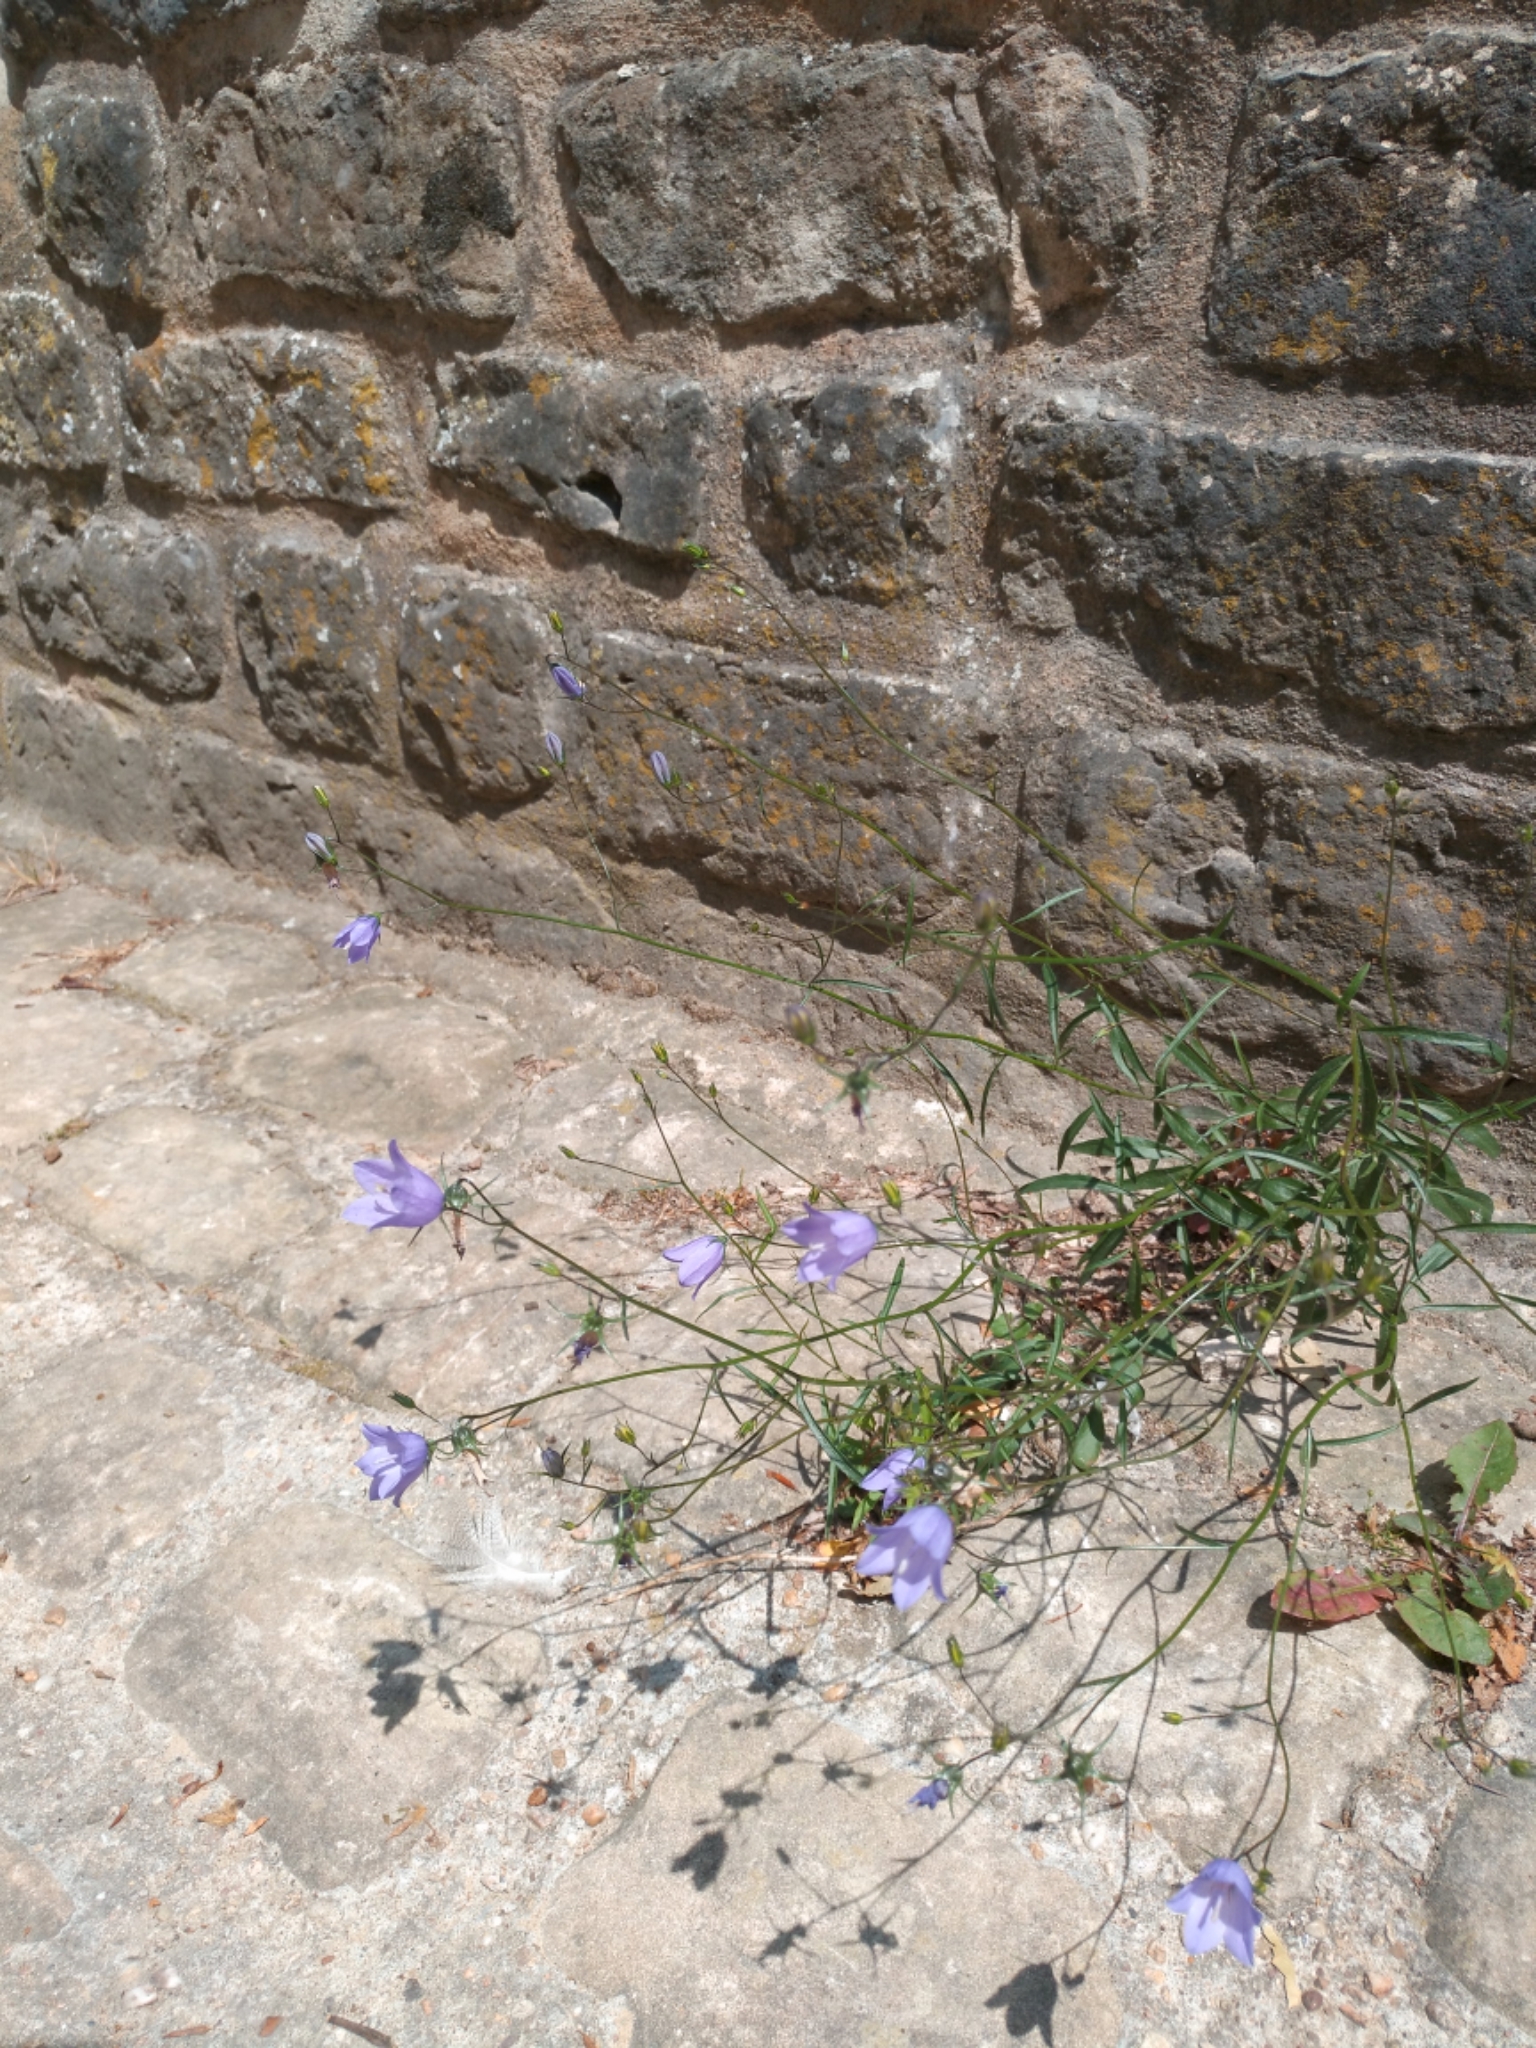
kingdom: Plantae
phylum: Tracheophyta
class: Magnoliopsida
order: Asterales
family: Campanulaceae
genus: Campanula
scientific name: Campanula rotundifolia
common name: Harebell
